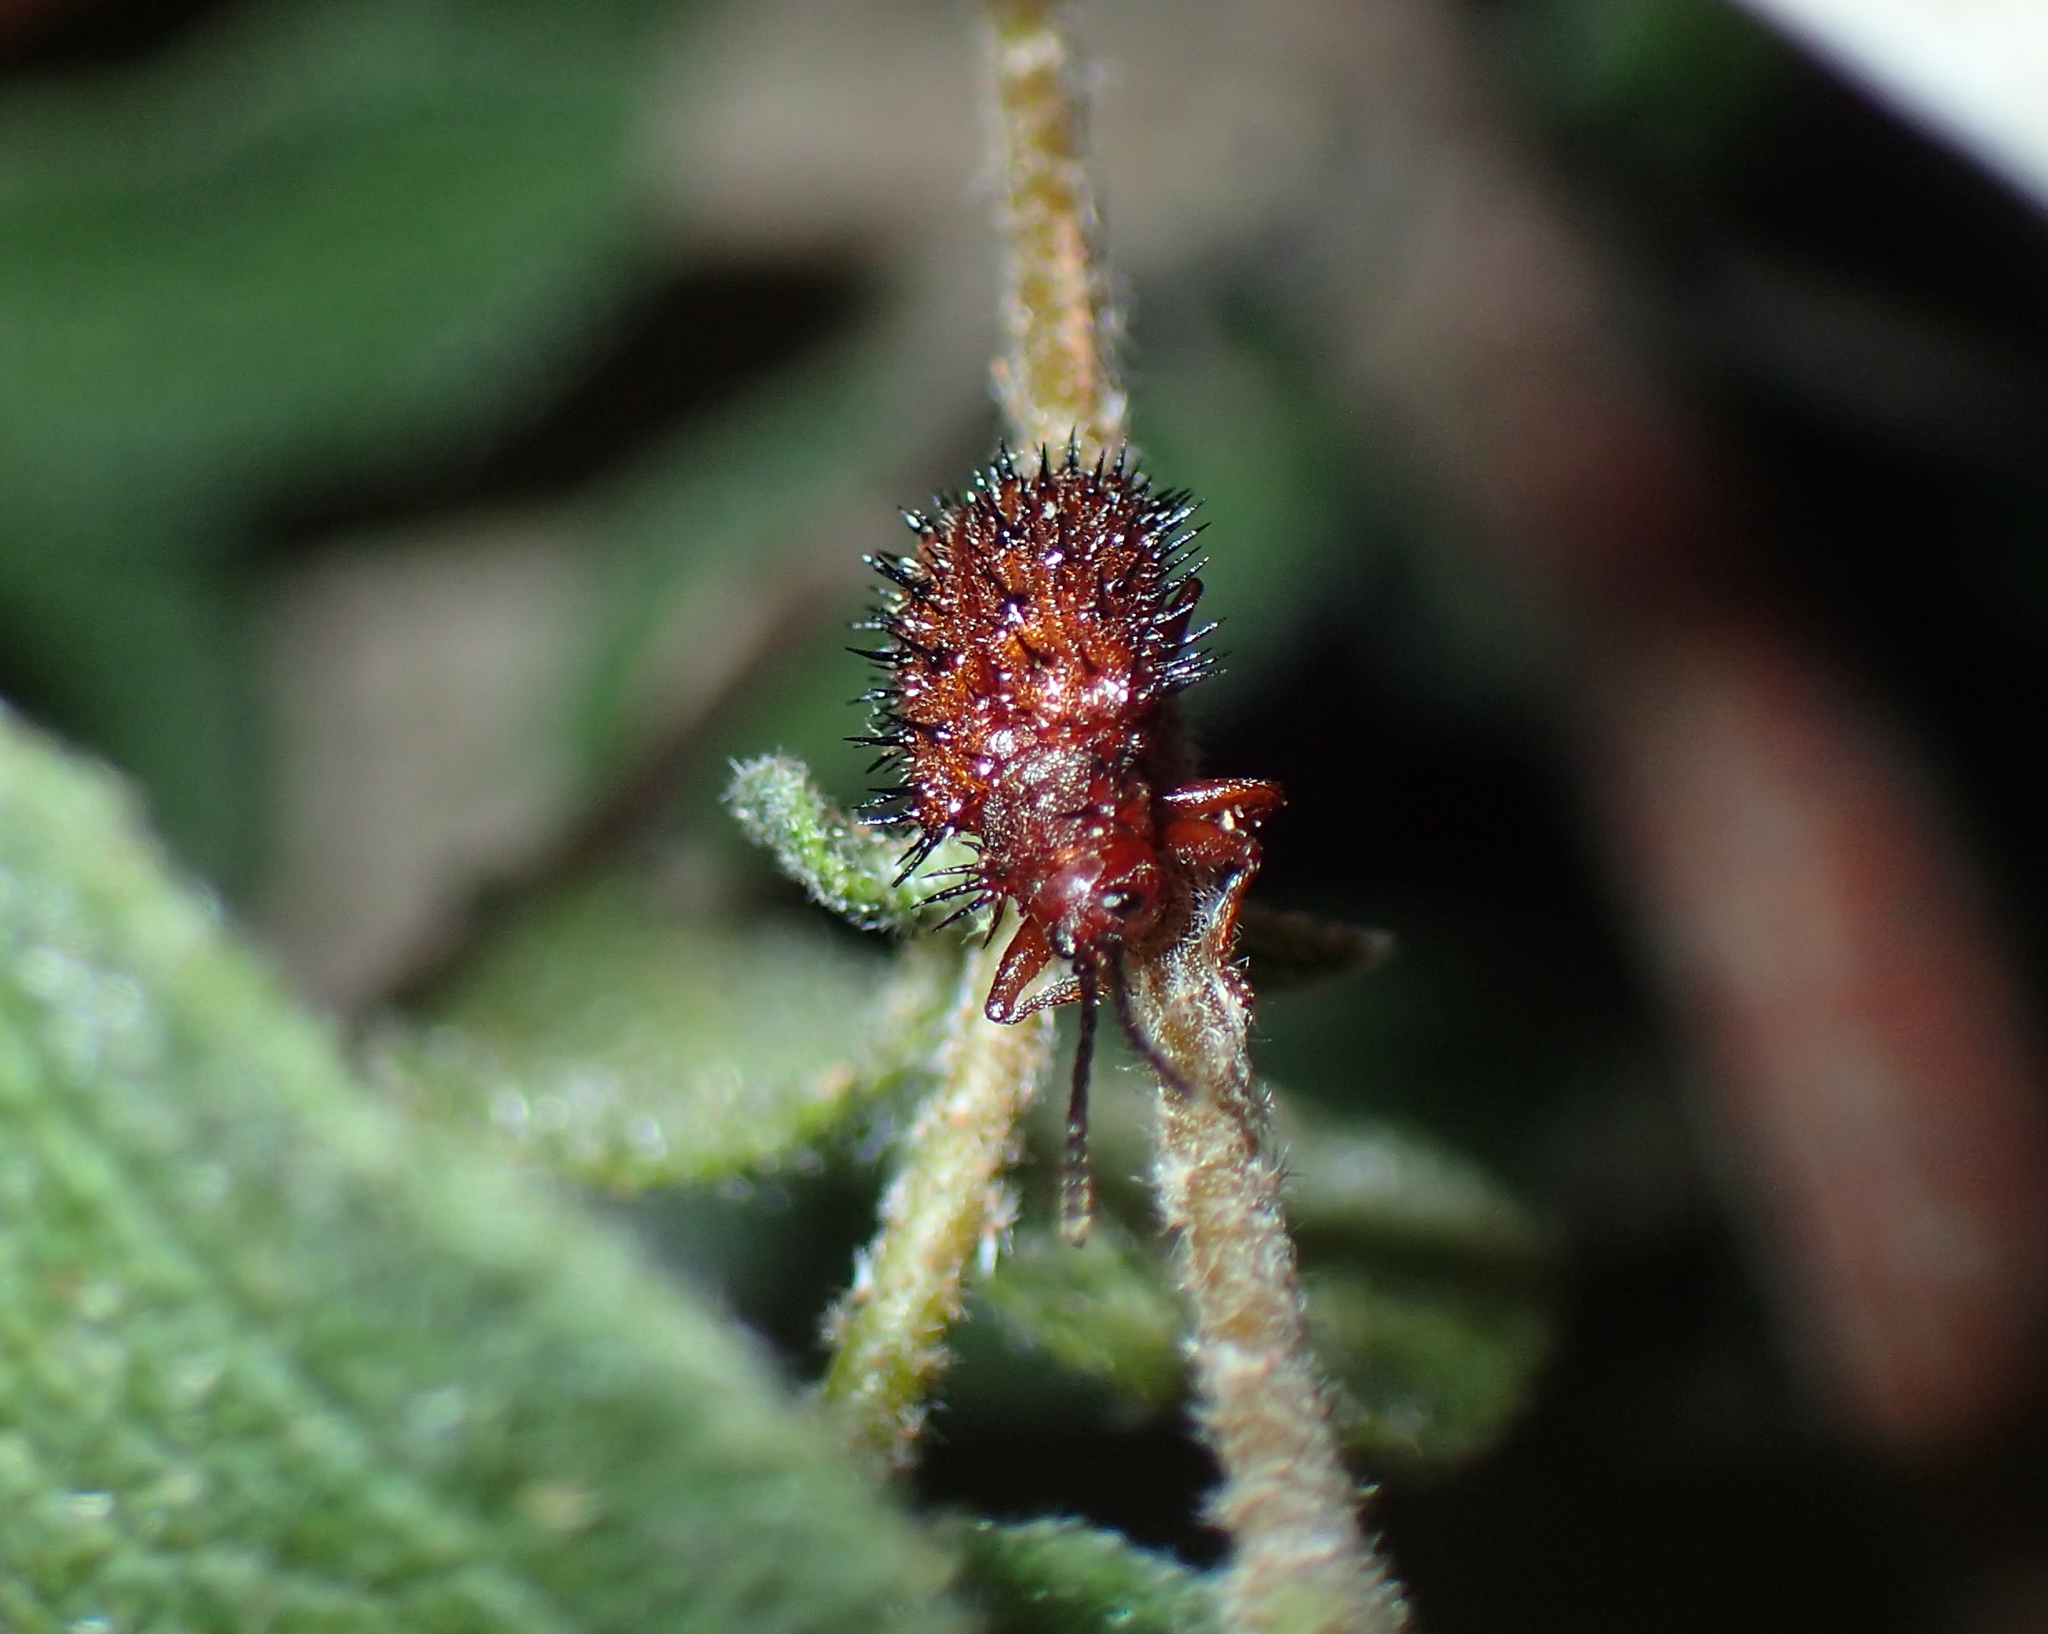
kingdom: Animalia
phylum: Arthropoda
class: Insecta
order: Coleoptera
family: Chrysomelidae
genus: Dicladispa
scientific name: Dicladispa testacea
